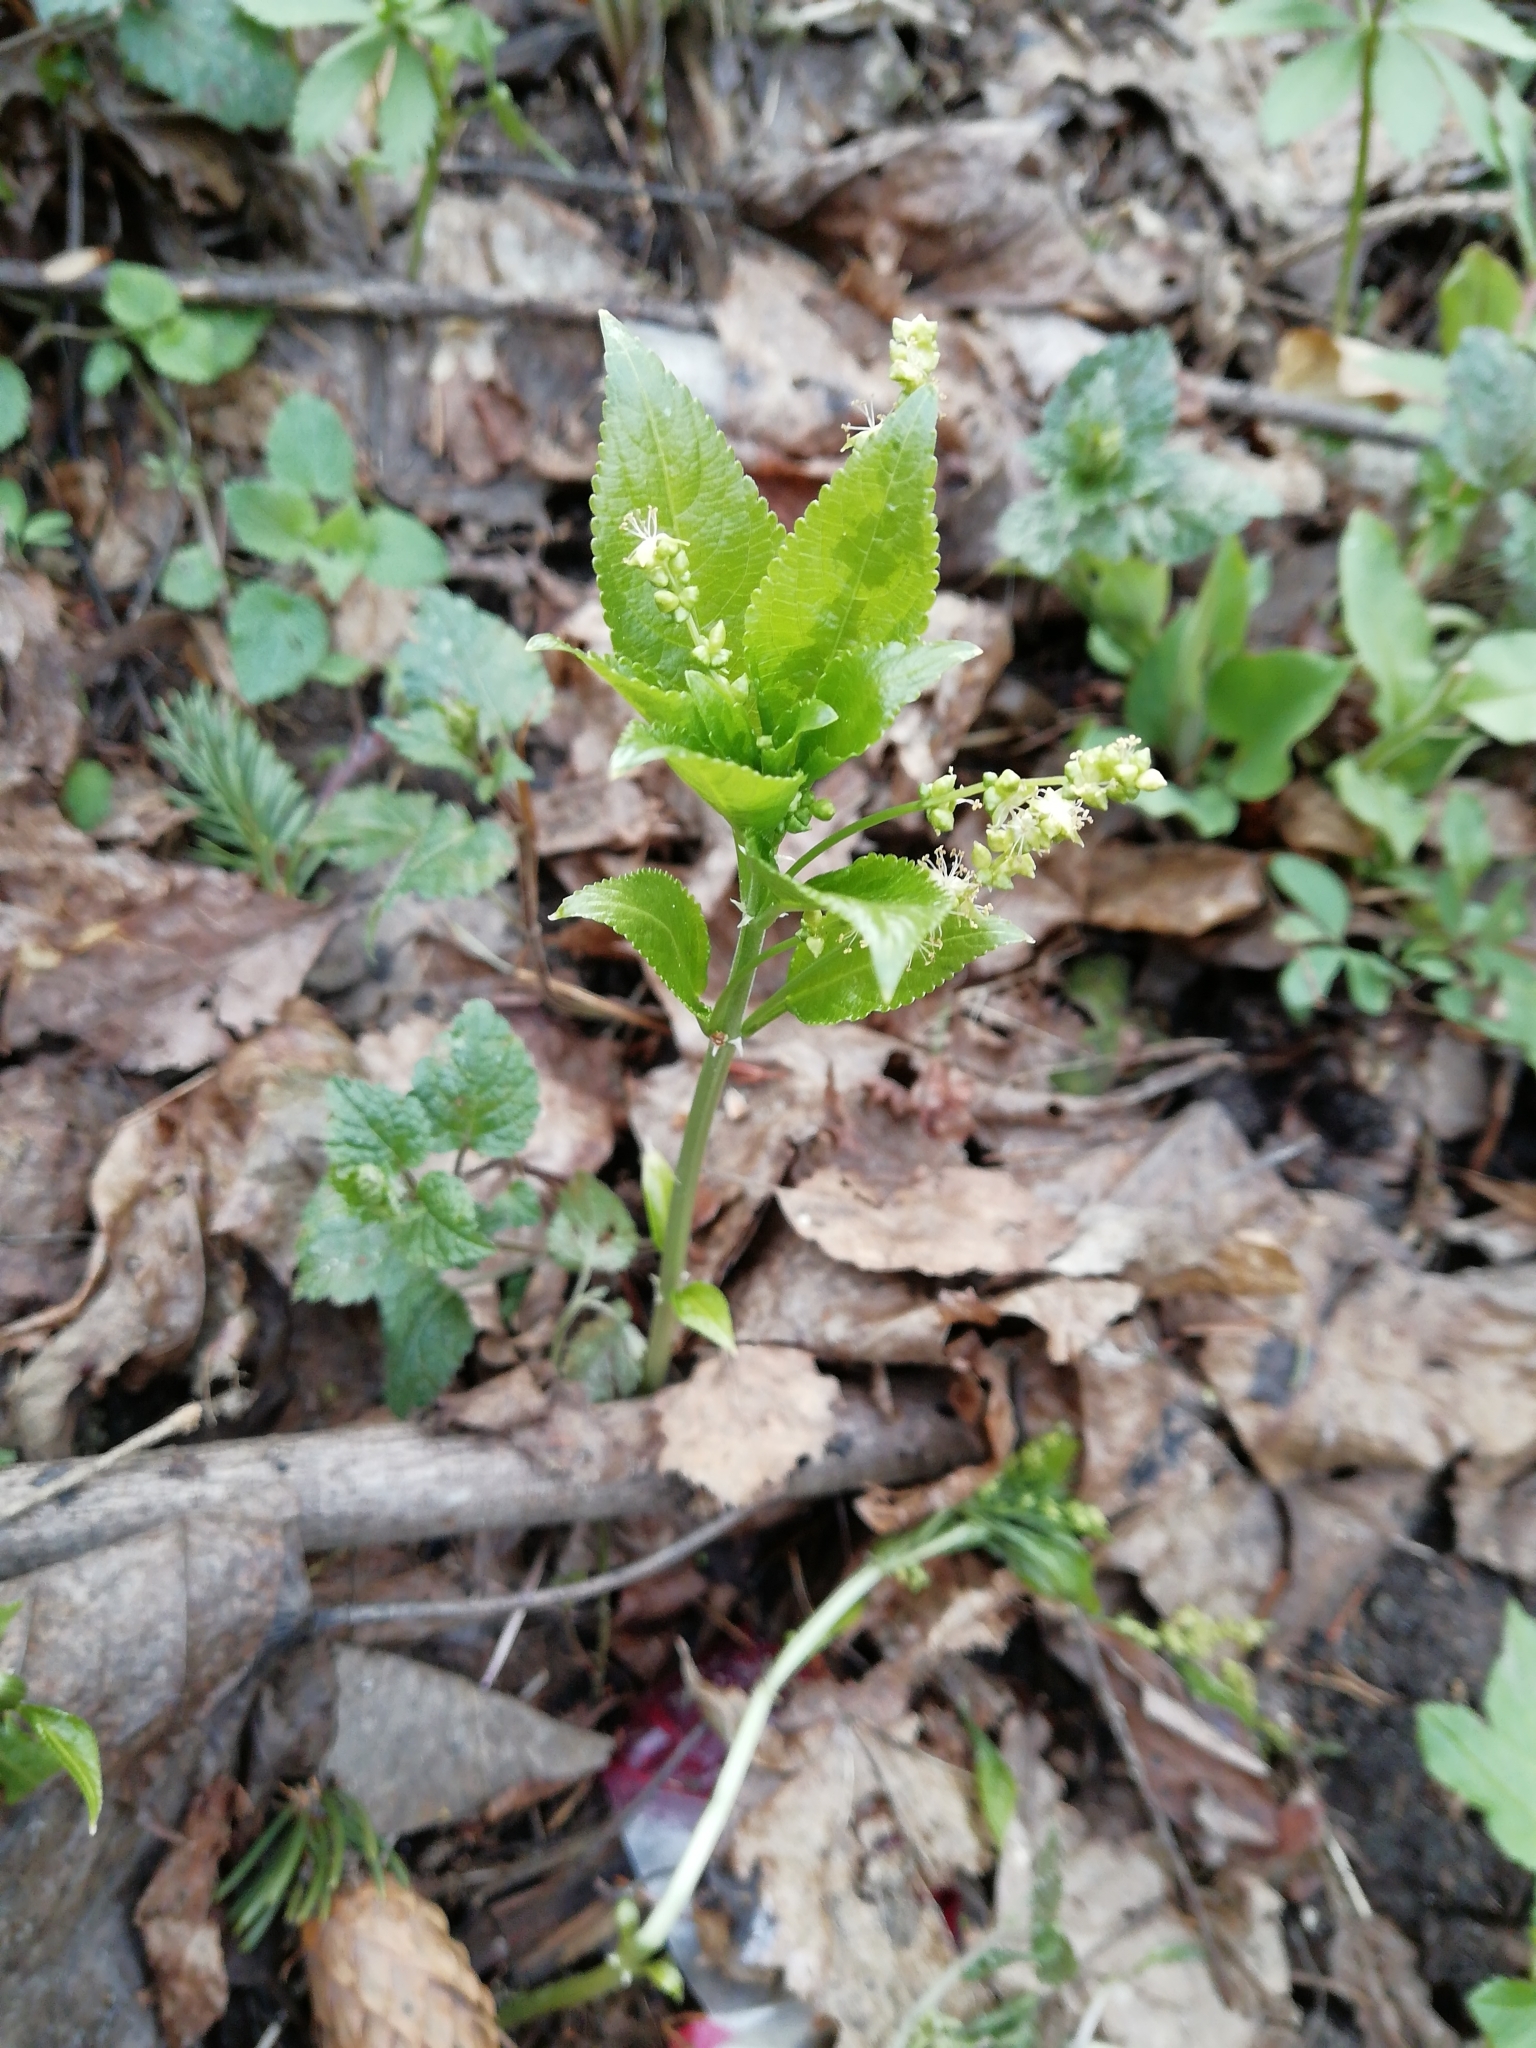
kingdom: Plantae
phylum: Tracheophyta
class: Magnoliopsida
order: Malpighiales
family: Euphorbiaceae
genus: Mercurialis
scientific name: Mercurialis perennis
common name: Dog mercury
